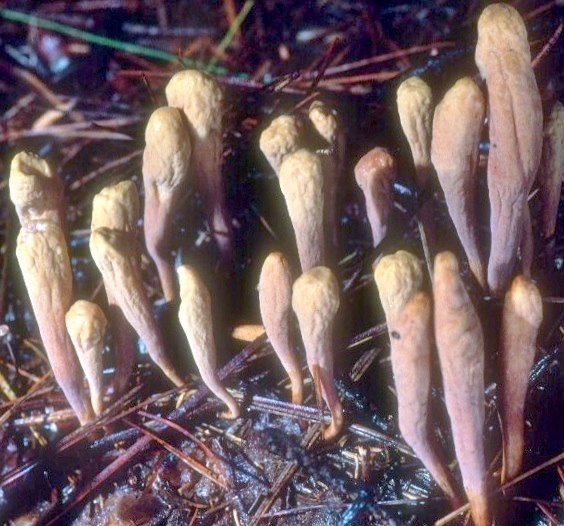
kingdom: Fungi
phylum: Basidiomycota
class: Agaricomycetes
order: Gomphales
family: Clavariadelphaceae
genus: Clavariadelphus
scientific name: Clavariadelphus ligula
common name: Ochre club
